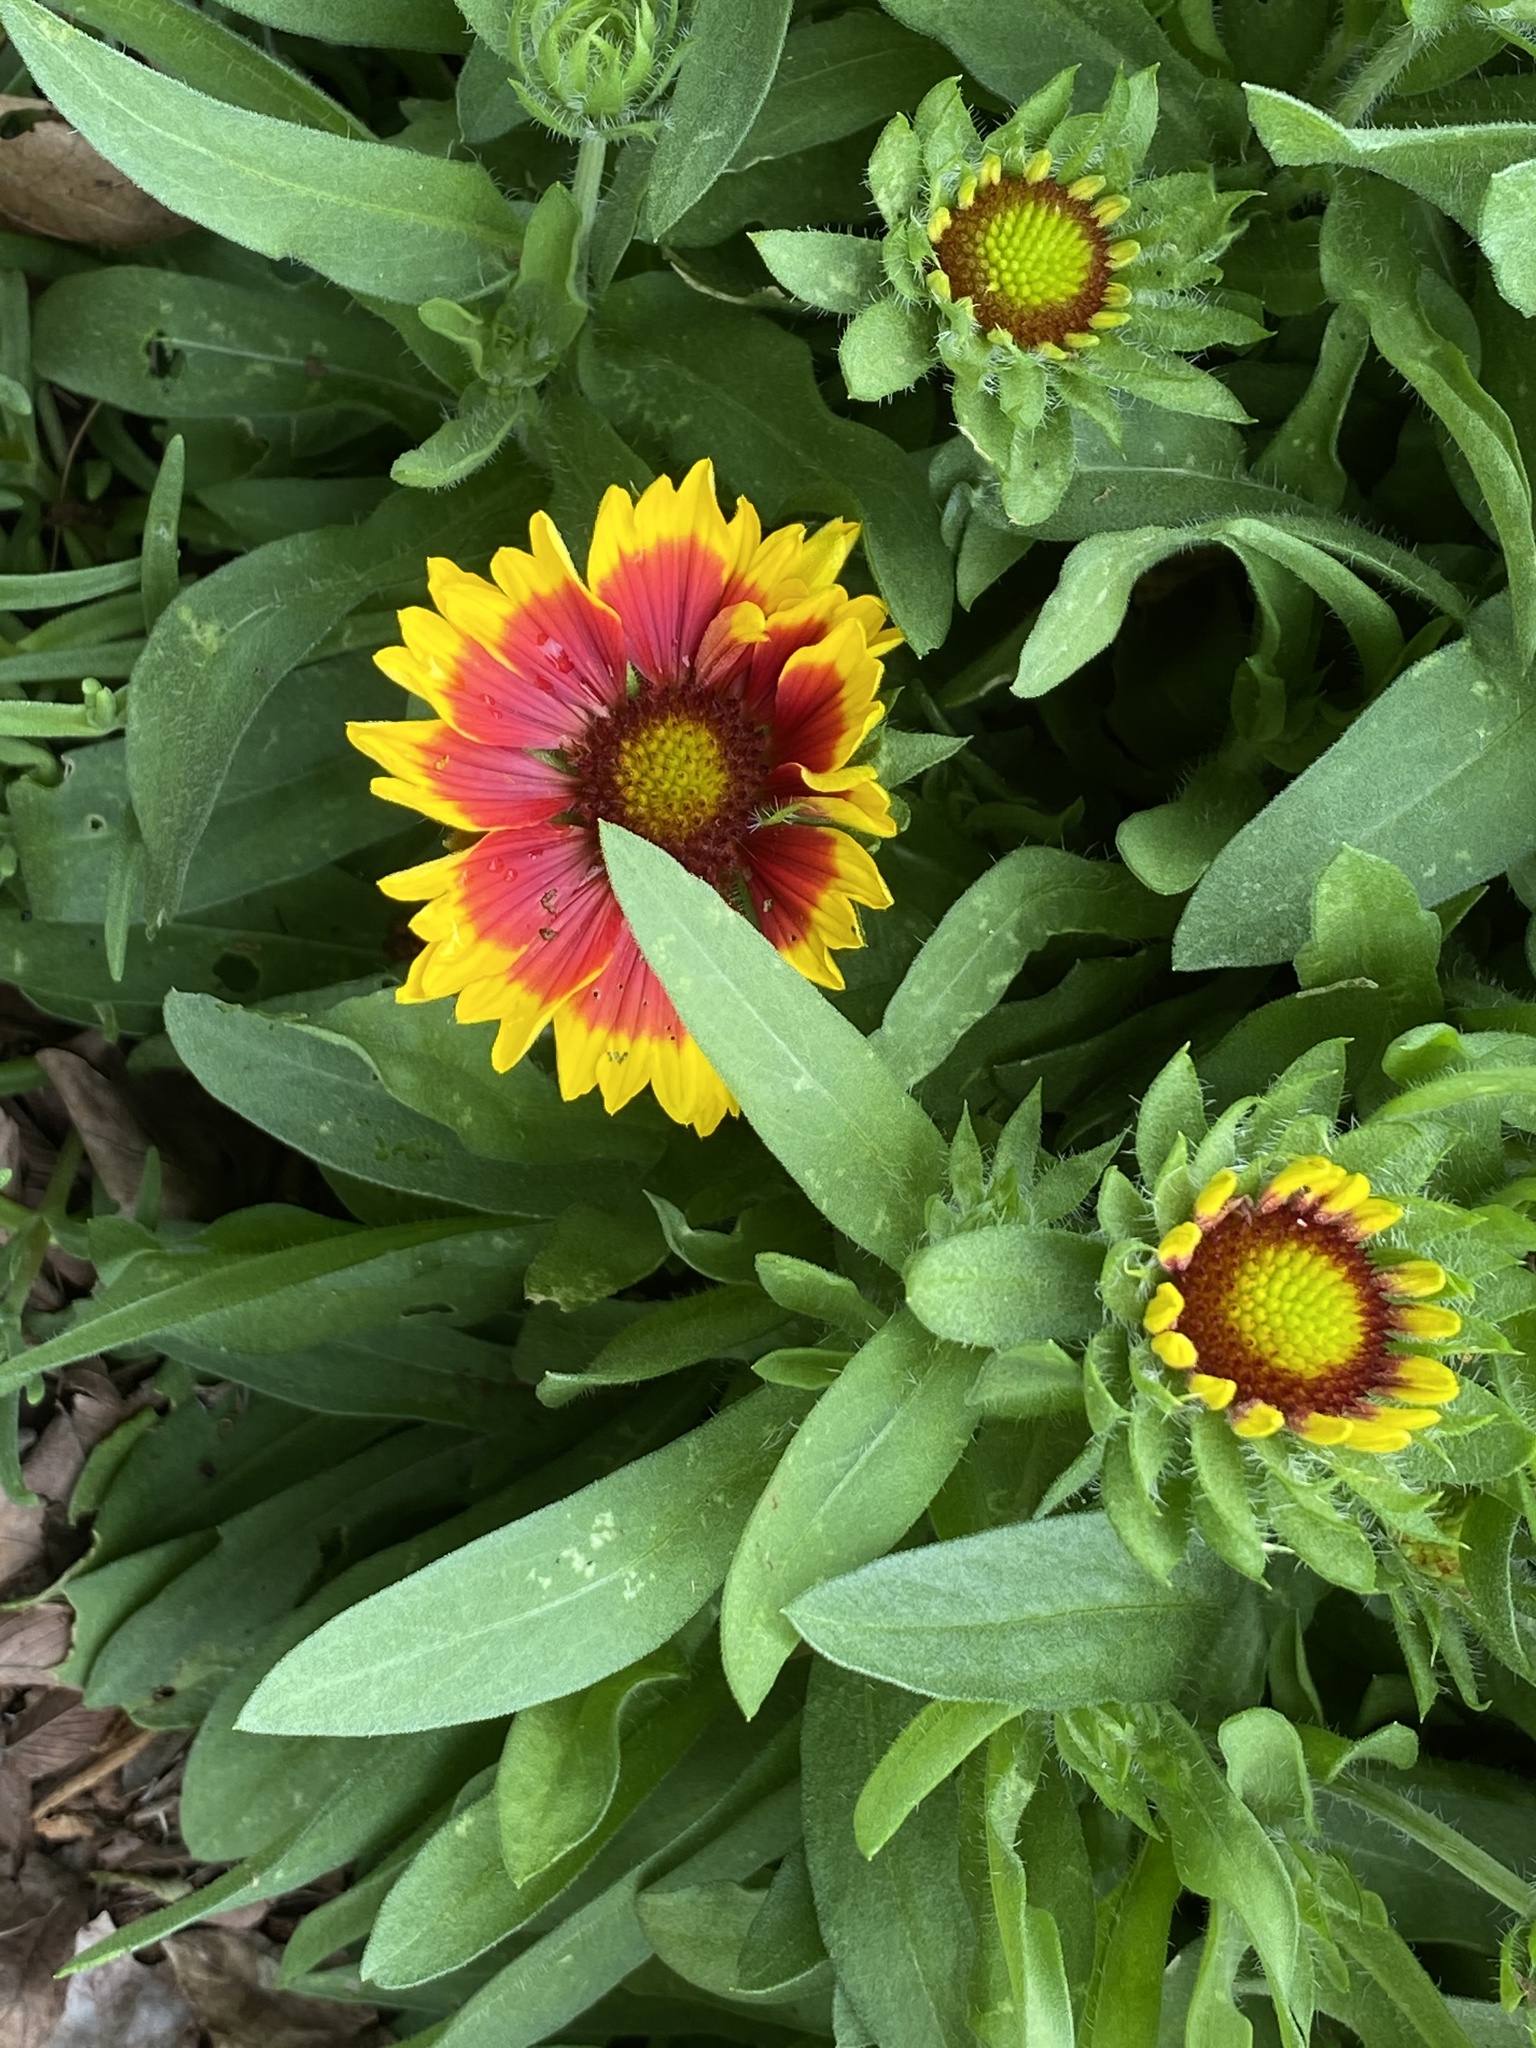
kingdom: Plantae
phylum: Tracheophyta
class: Magnoliopsida
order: Asterales
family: Asteraceae
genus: Gaillardia
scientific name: Gaillardia pulchella
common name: Firewheel
